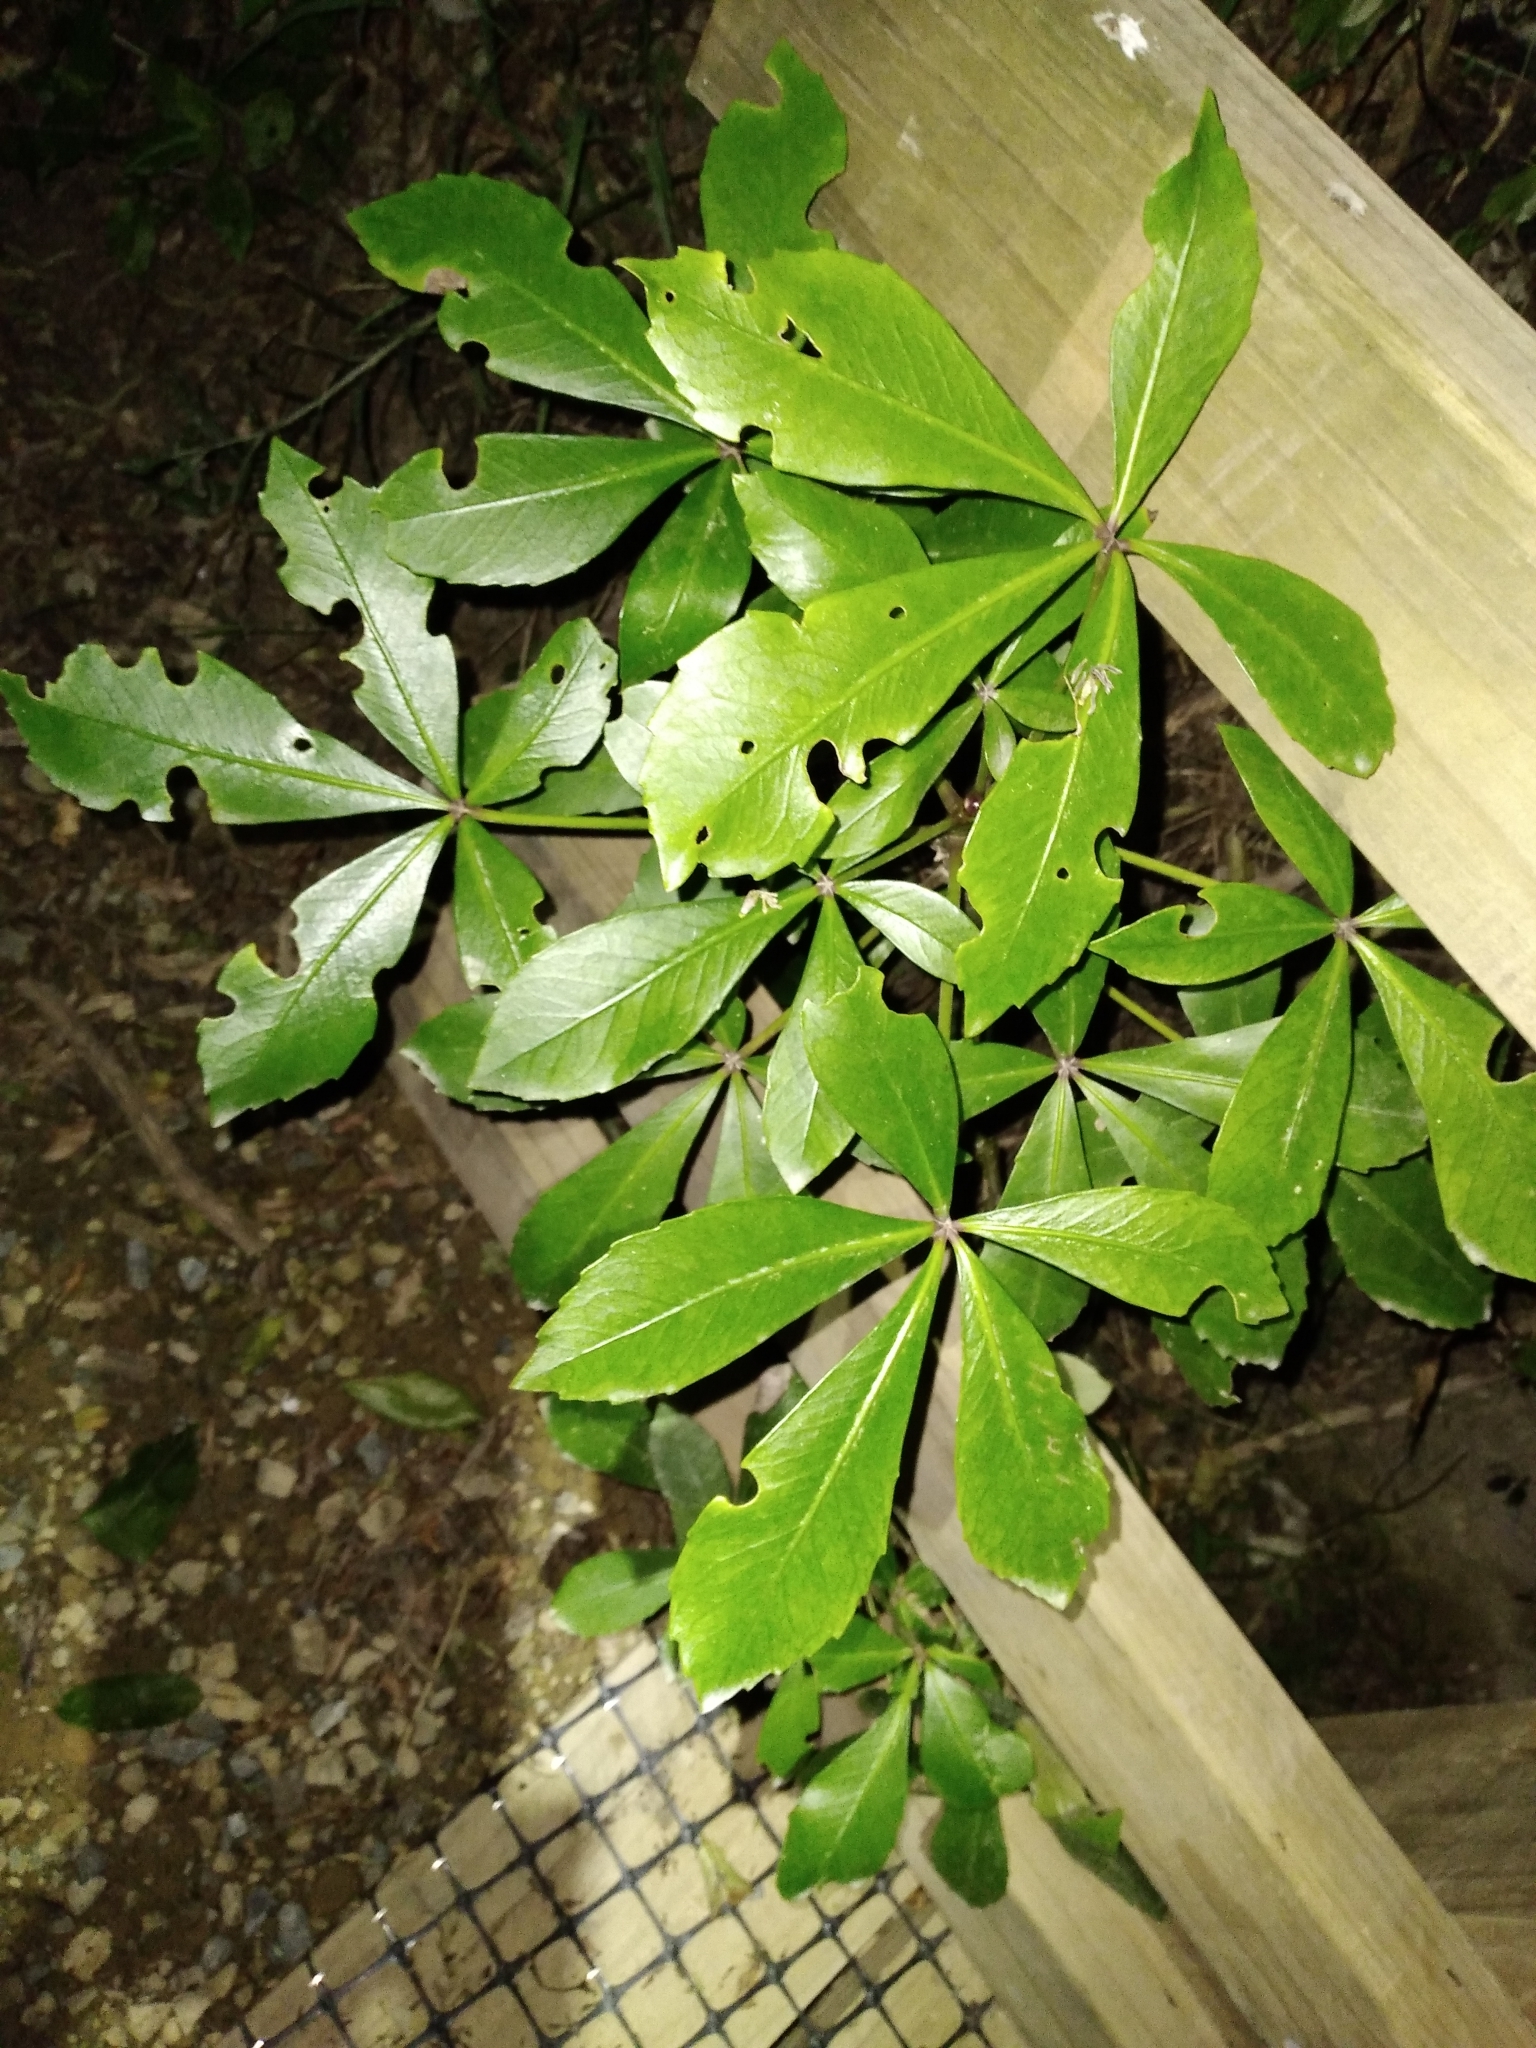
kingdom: Plantae
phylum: Tracheophyta
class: Magnoliopsida
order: Apiales
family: Araliaceae
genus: Pseudopanax
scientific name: Pseudopanax lessonii
